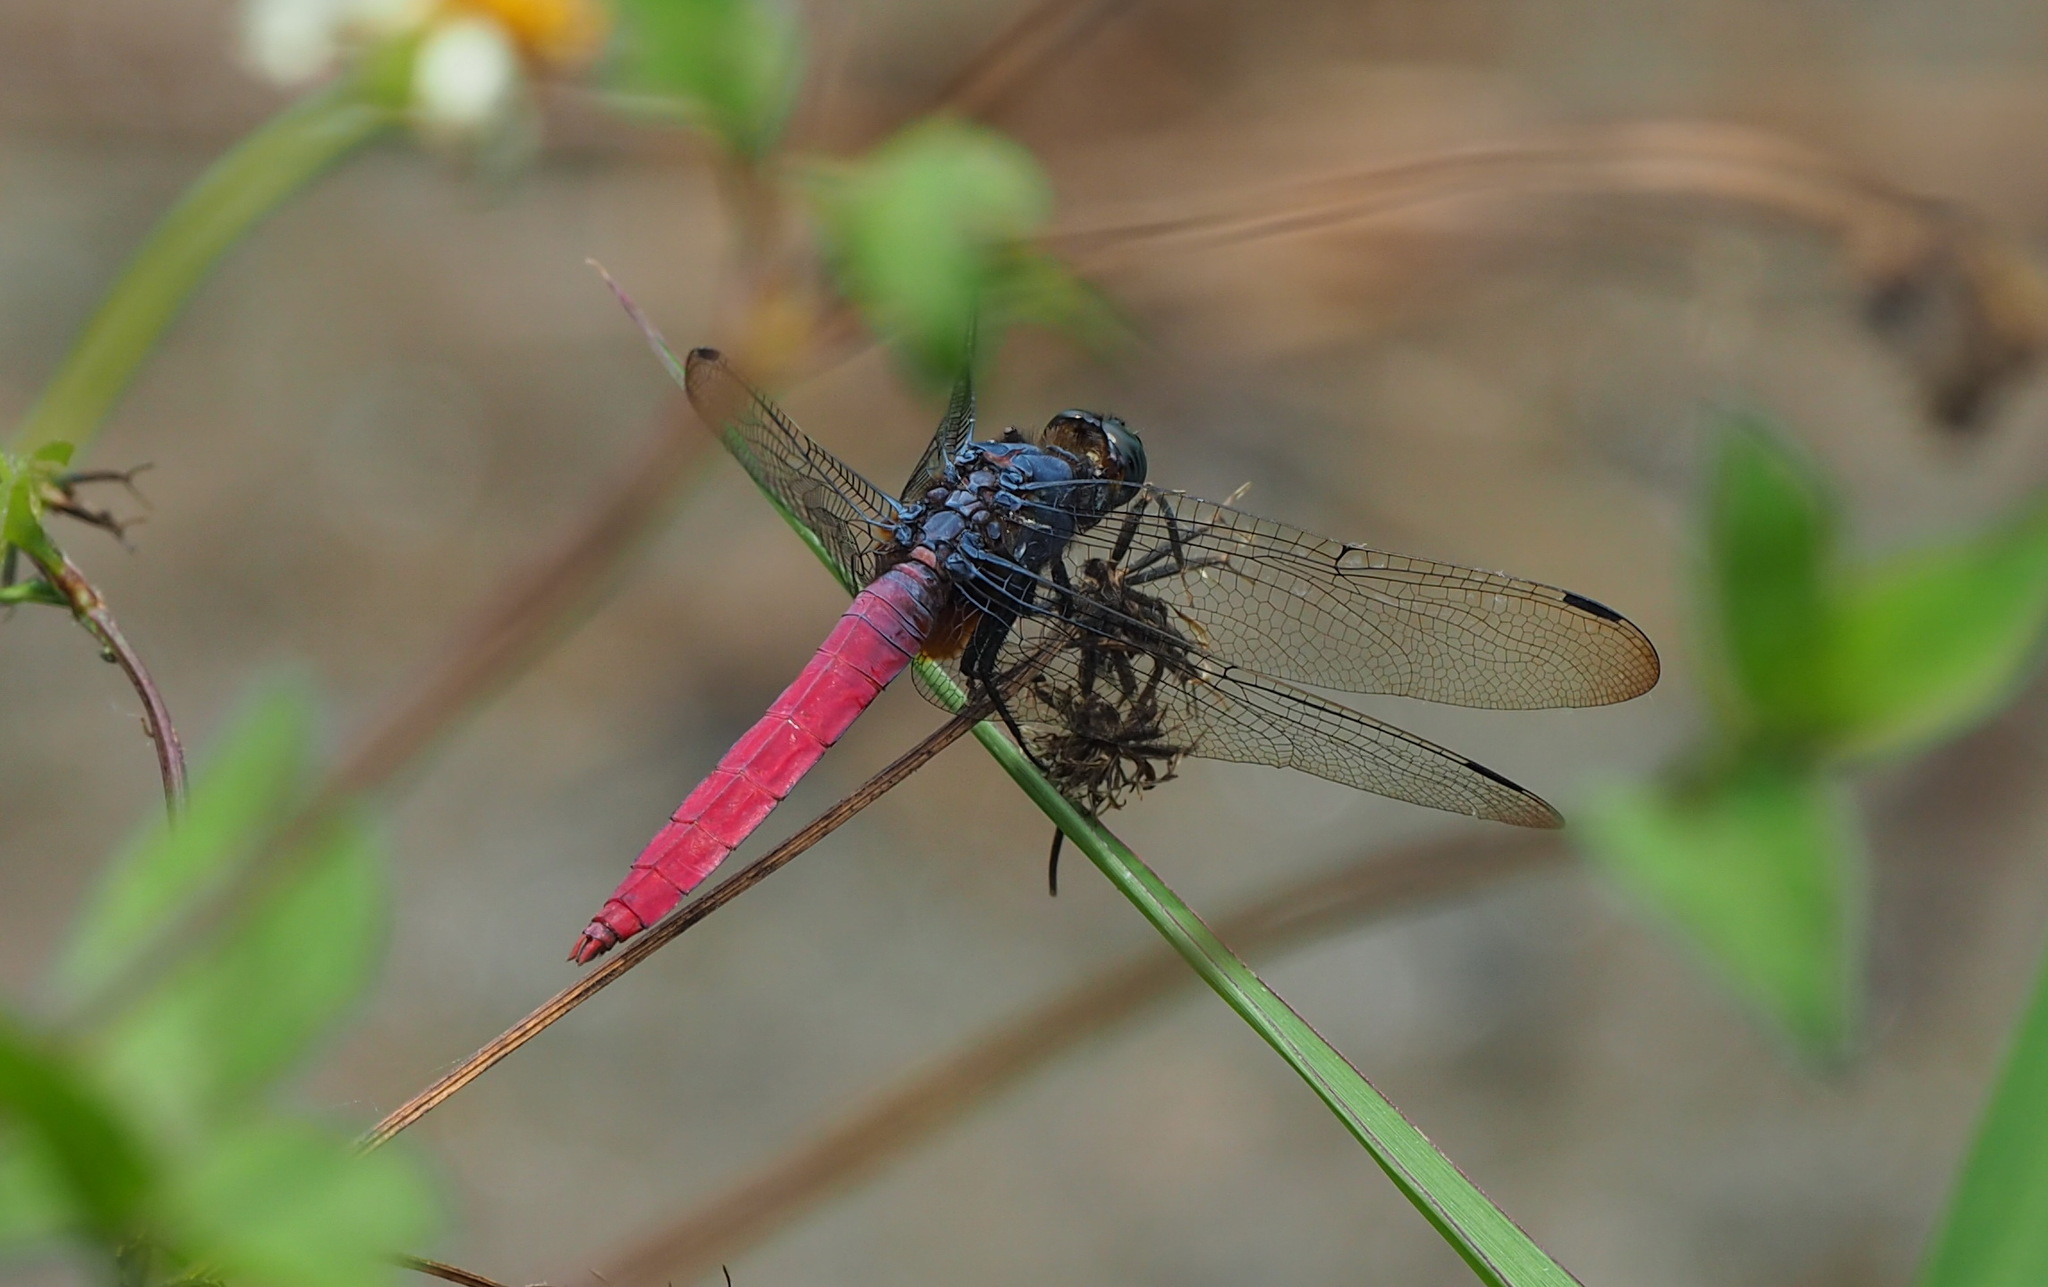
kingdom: Animalia
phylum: Arthropoda
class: Insecta
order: Odonata
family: Libellulidae
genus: Orthetrum
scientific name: Orthetrum pruinosum
